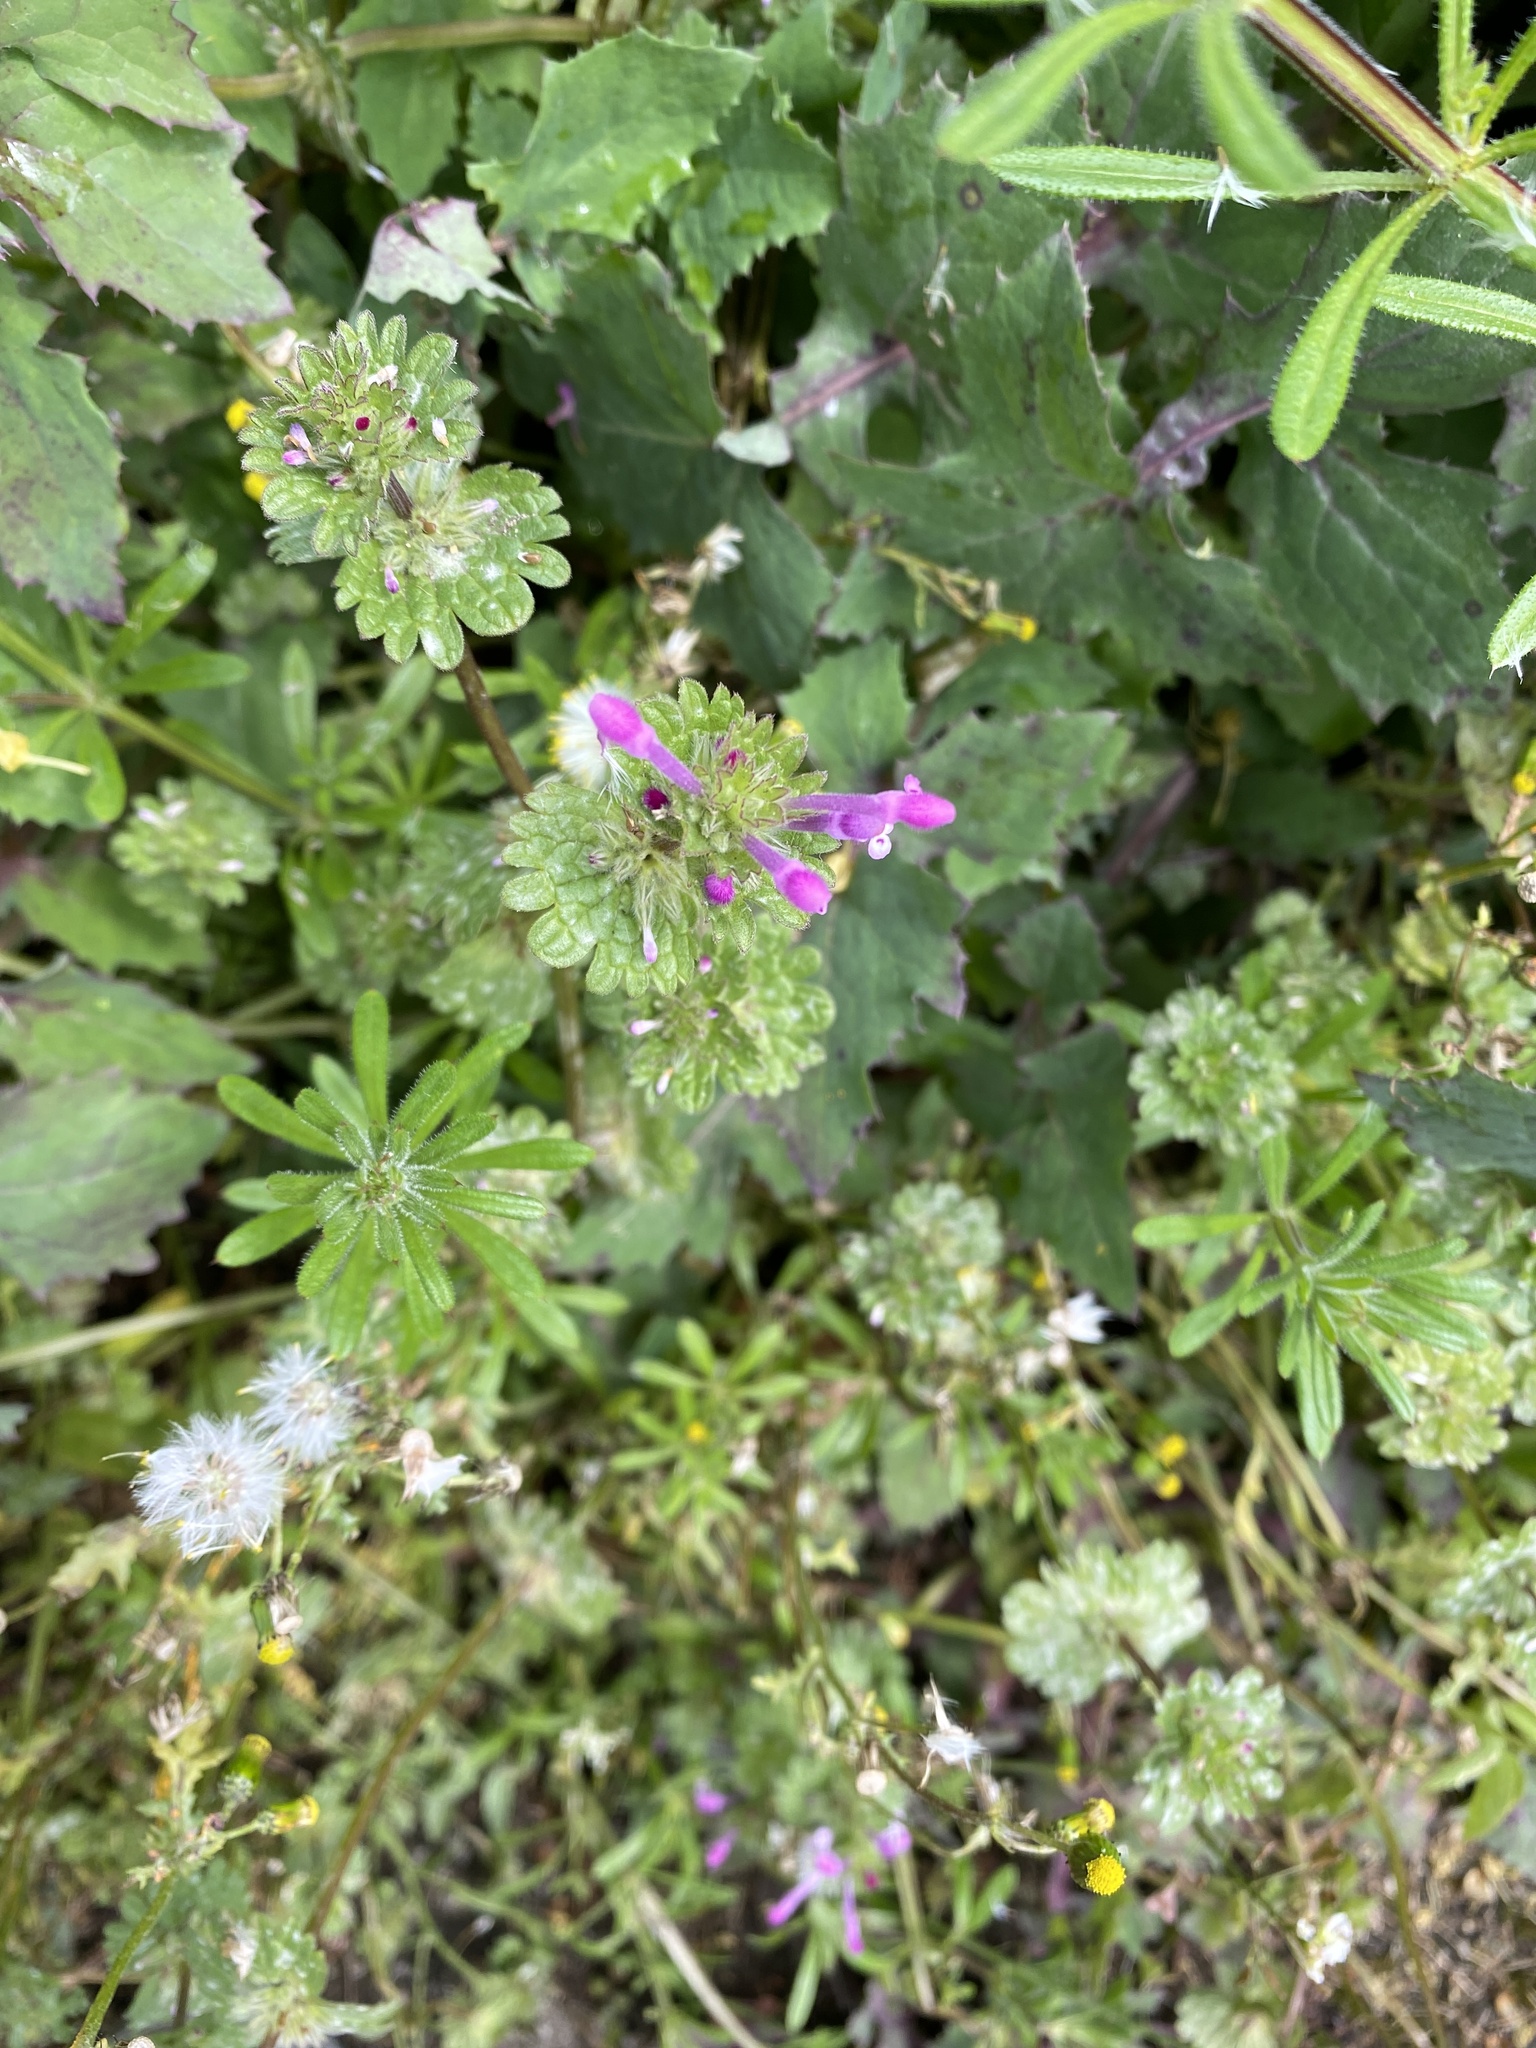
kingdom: Plantae
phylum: Tracheophyta
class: Magnoliopsida
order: Lamiales
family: Lamiaceae
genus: Lamium
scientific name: Lamium amplexicaule
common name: Henbit dead-nettle
